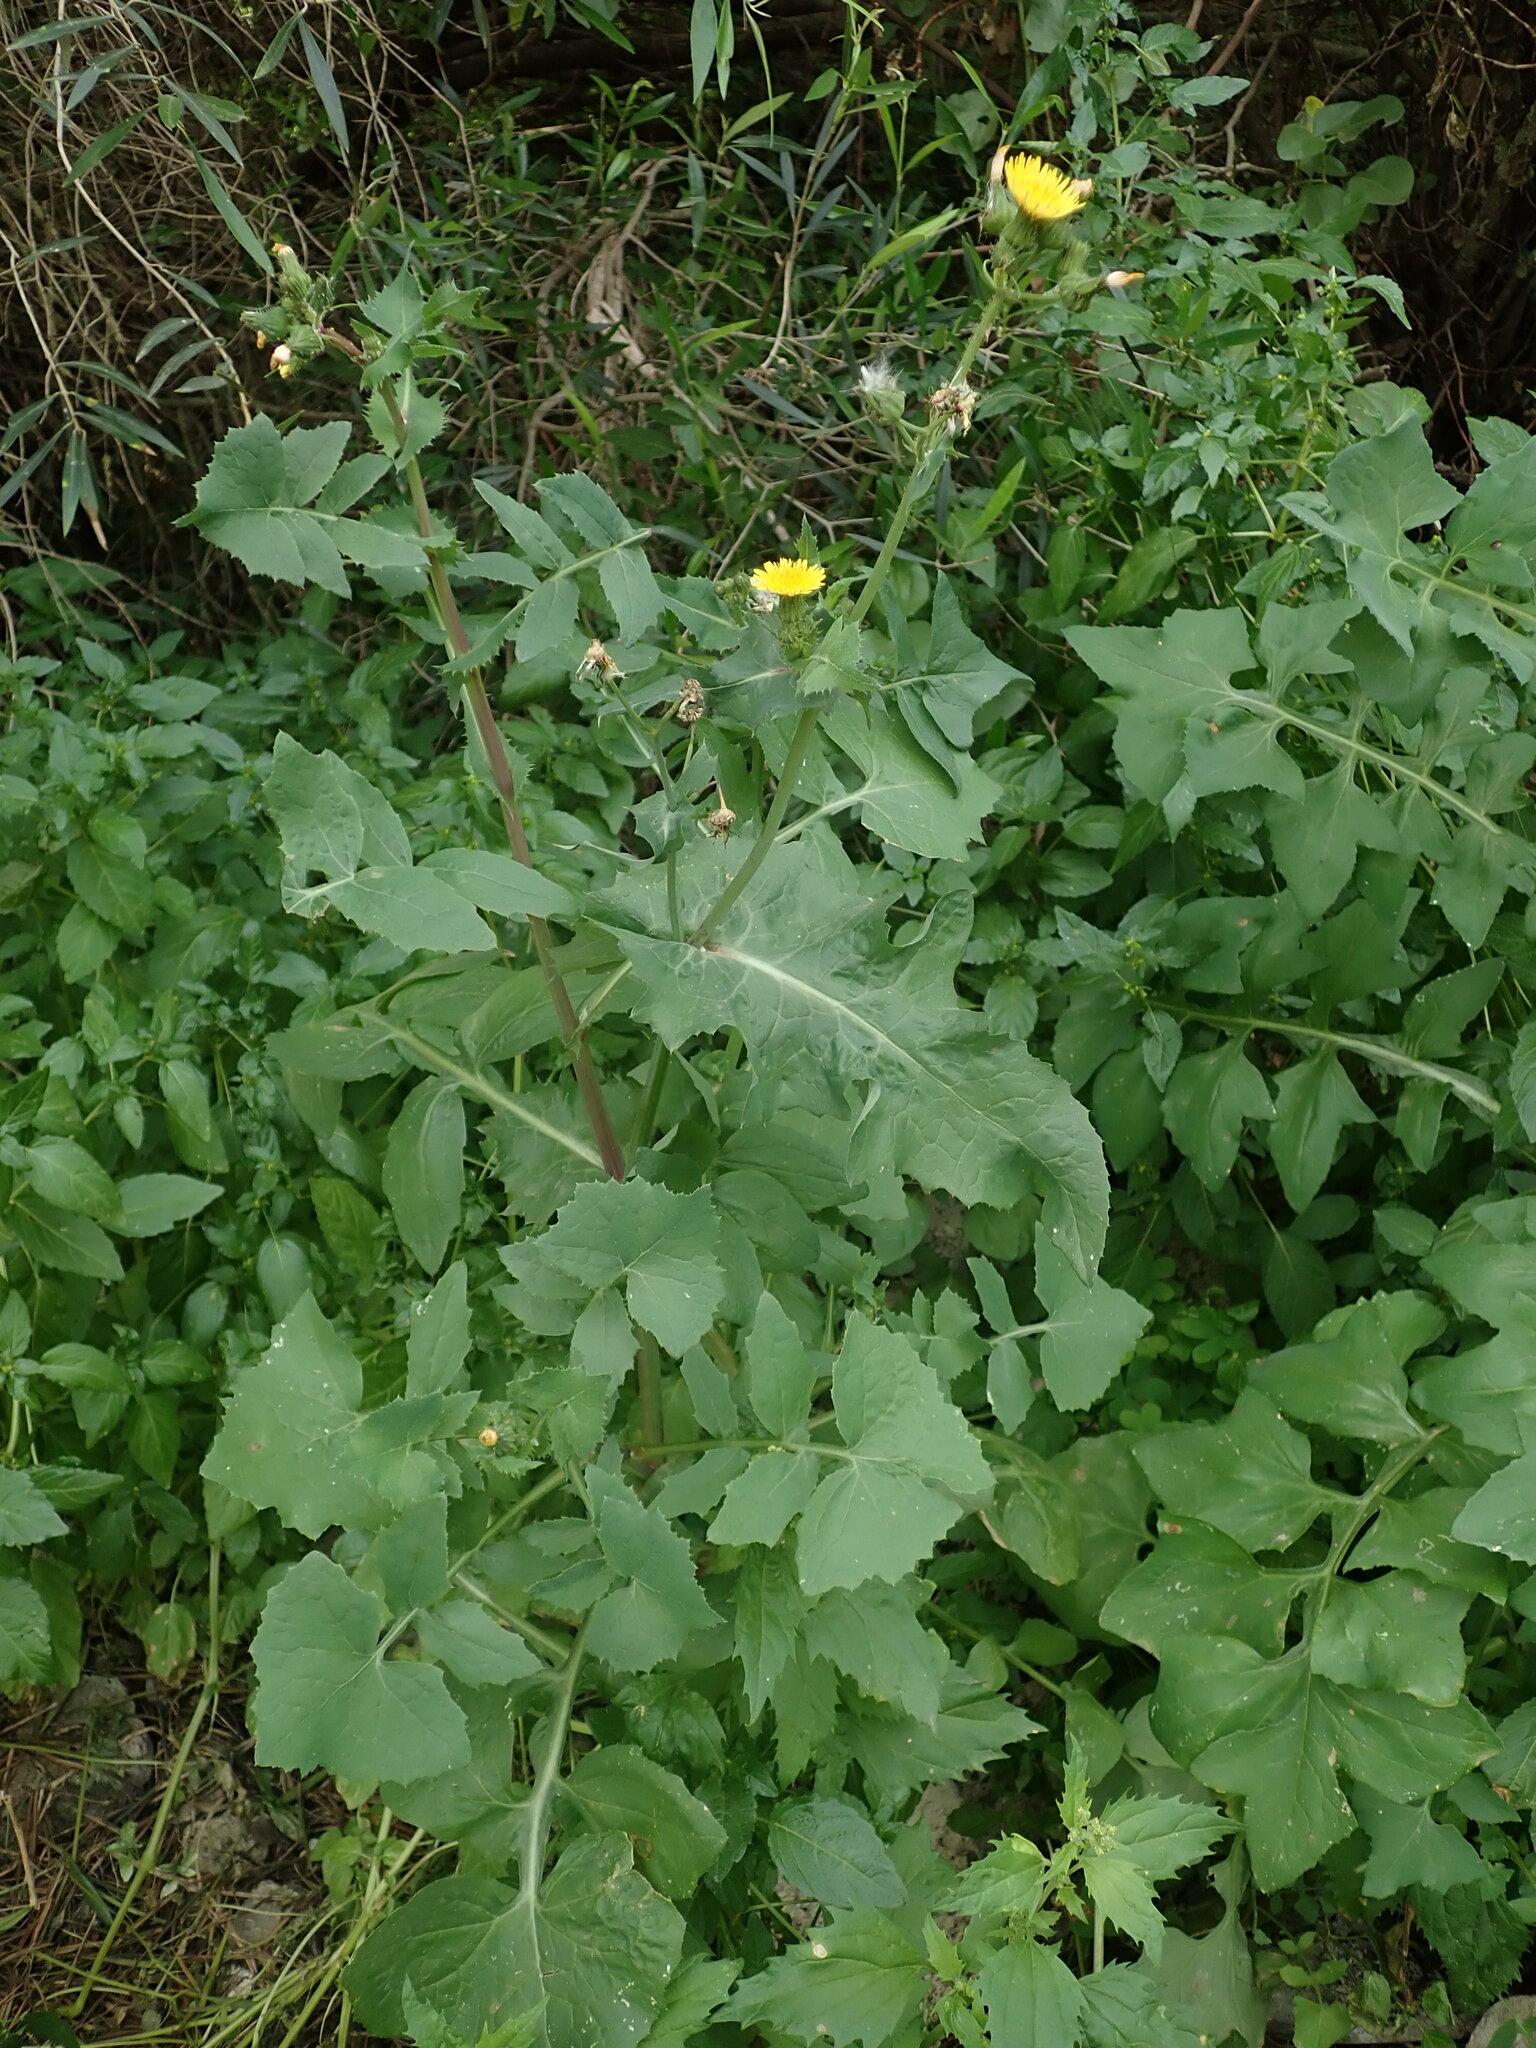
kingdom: Plantae
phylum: Tracheophyta
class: Magnoliopsida
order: Asterales
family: Asteraceae
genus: Sonchus
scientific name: Sonchus oleraceus
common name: Common sowthistle
